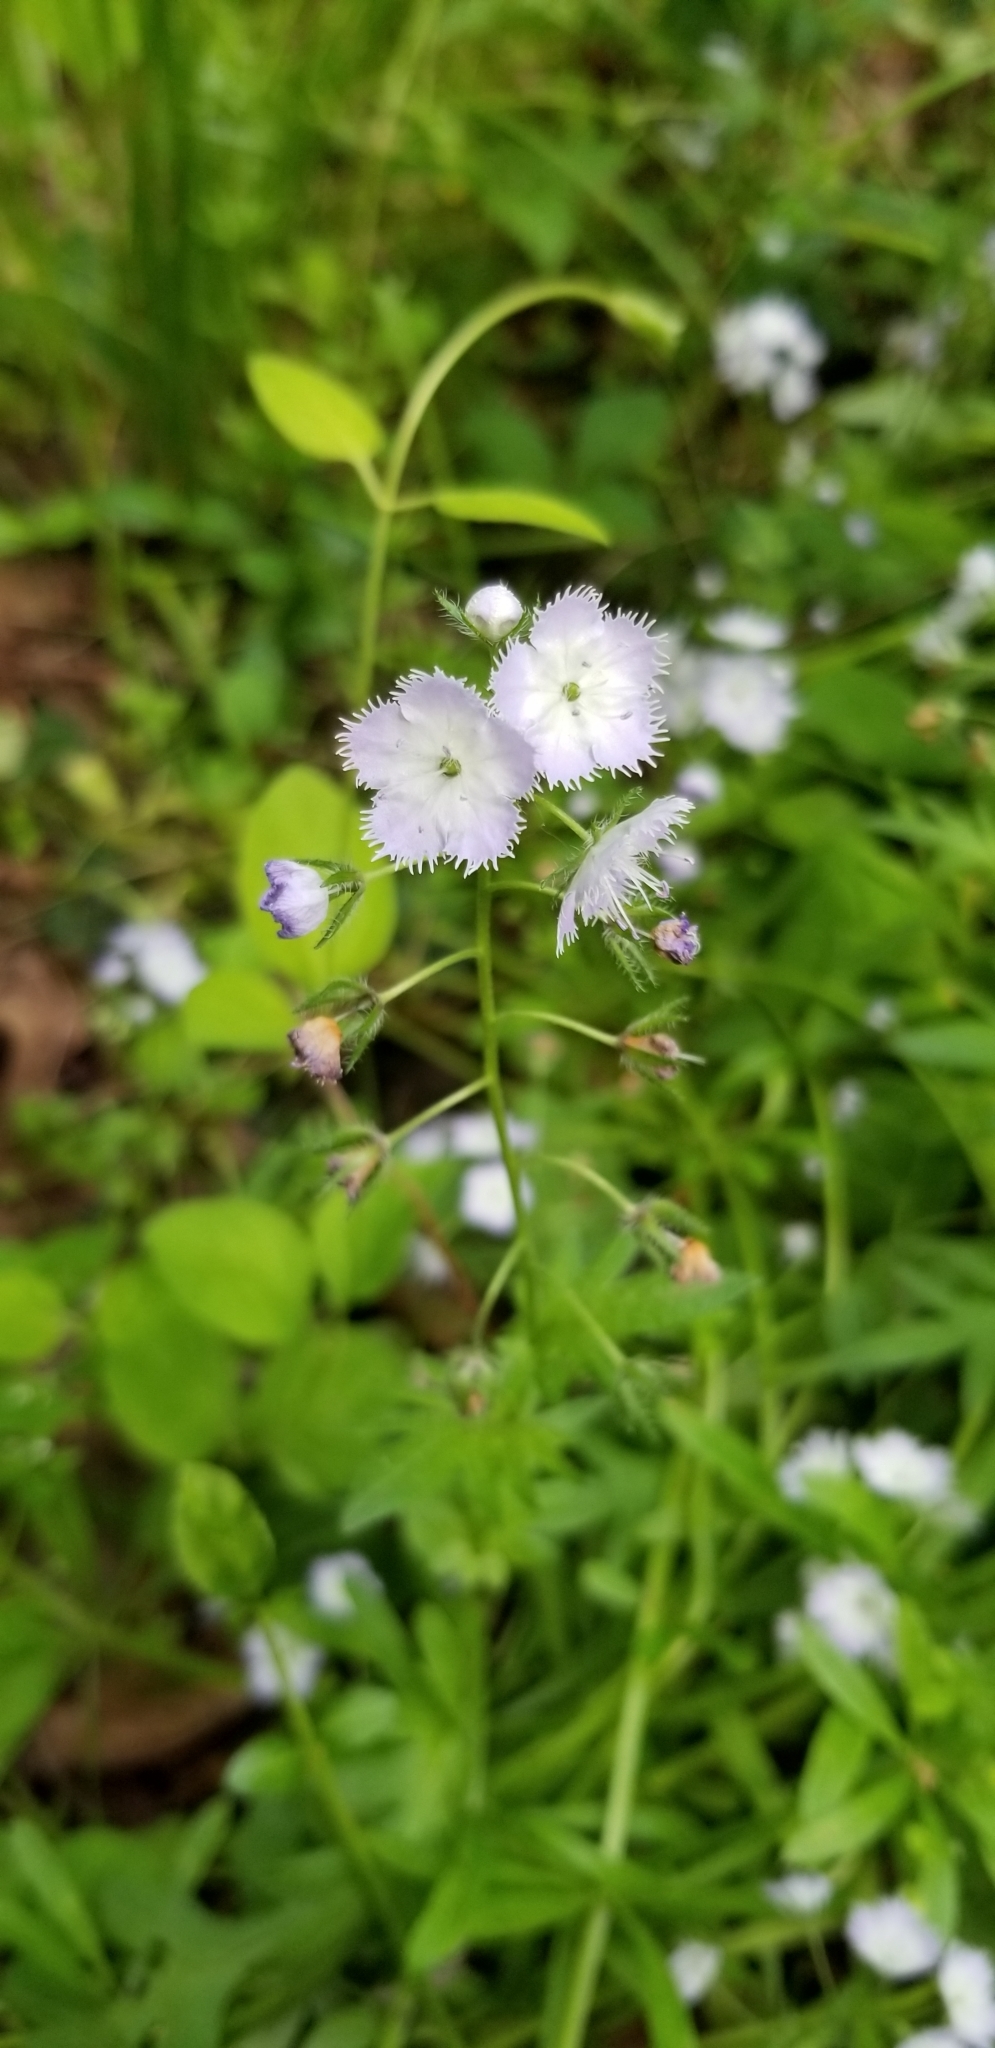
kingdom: Plantae
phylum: Tracheophyta
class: Magnoliopsida
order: Boraginales
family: Hydrophyllaceae
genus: Phacelia
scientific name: Phacelia purshii
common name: Miami-mist
